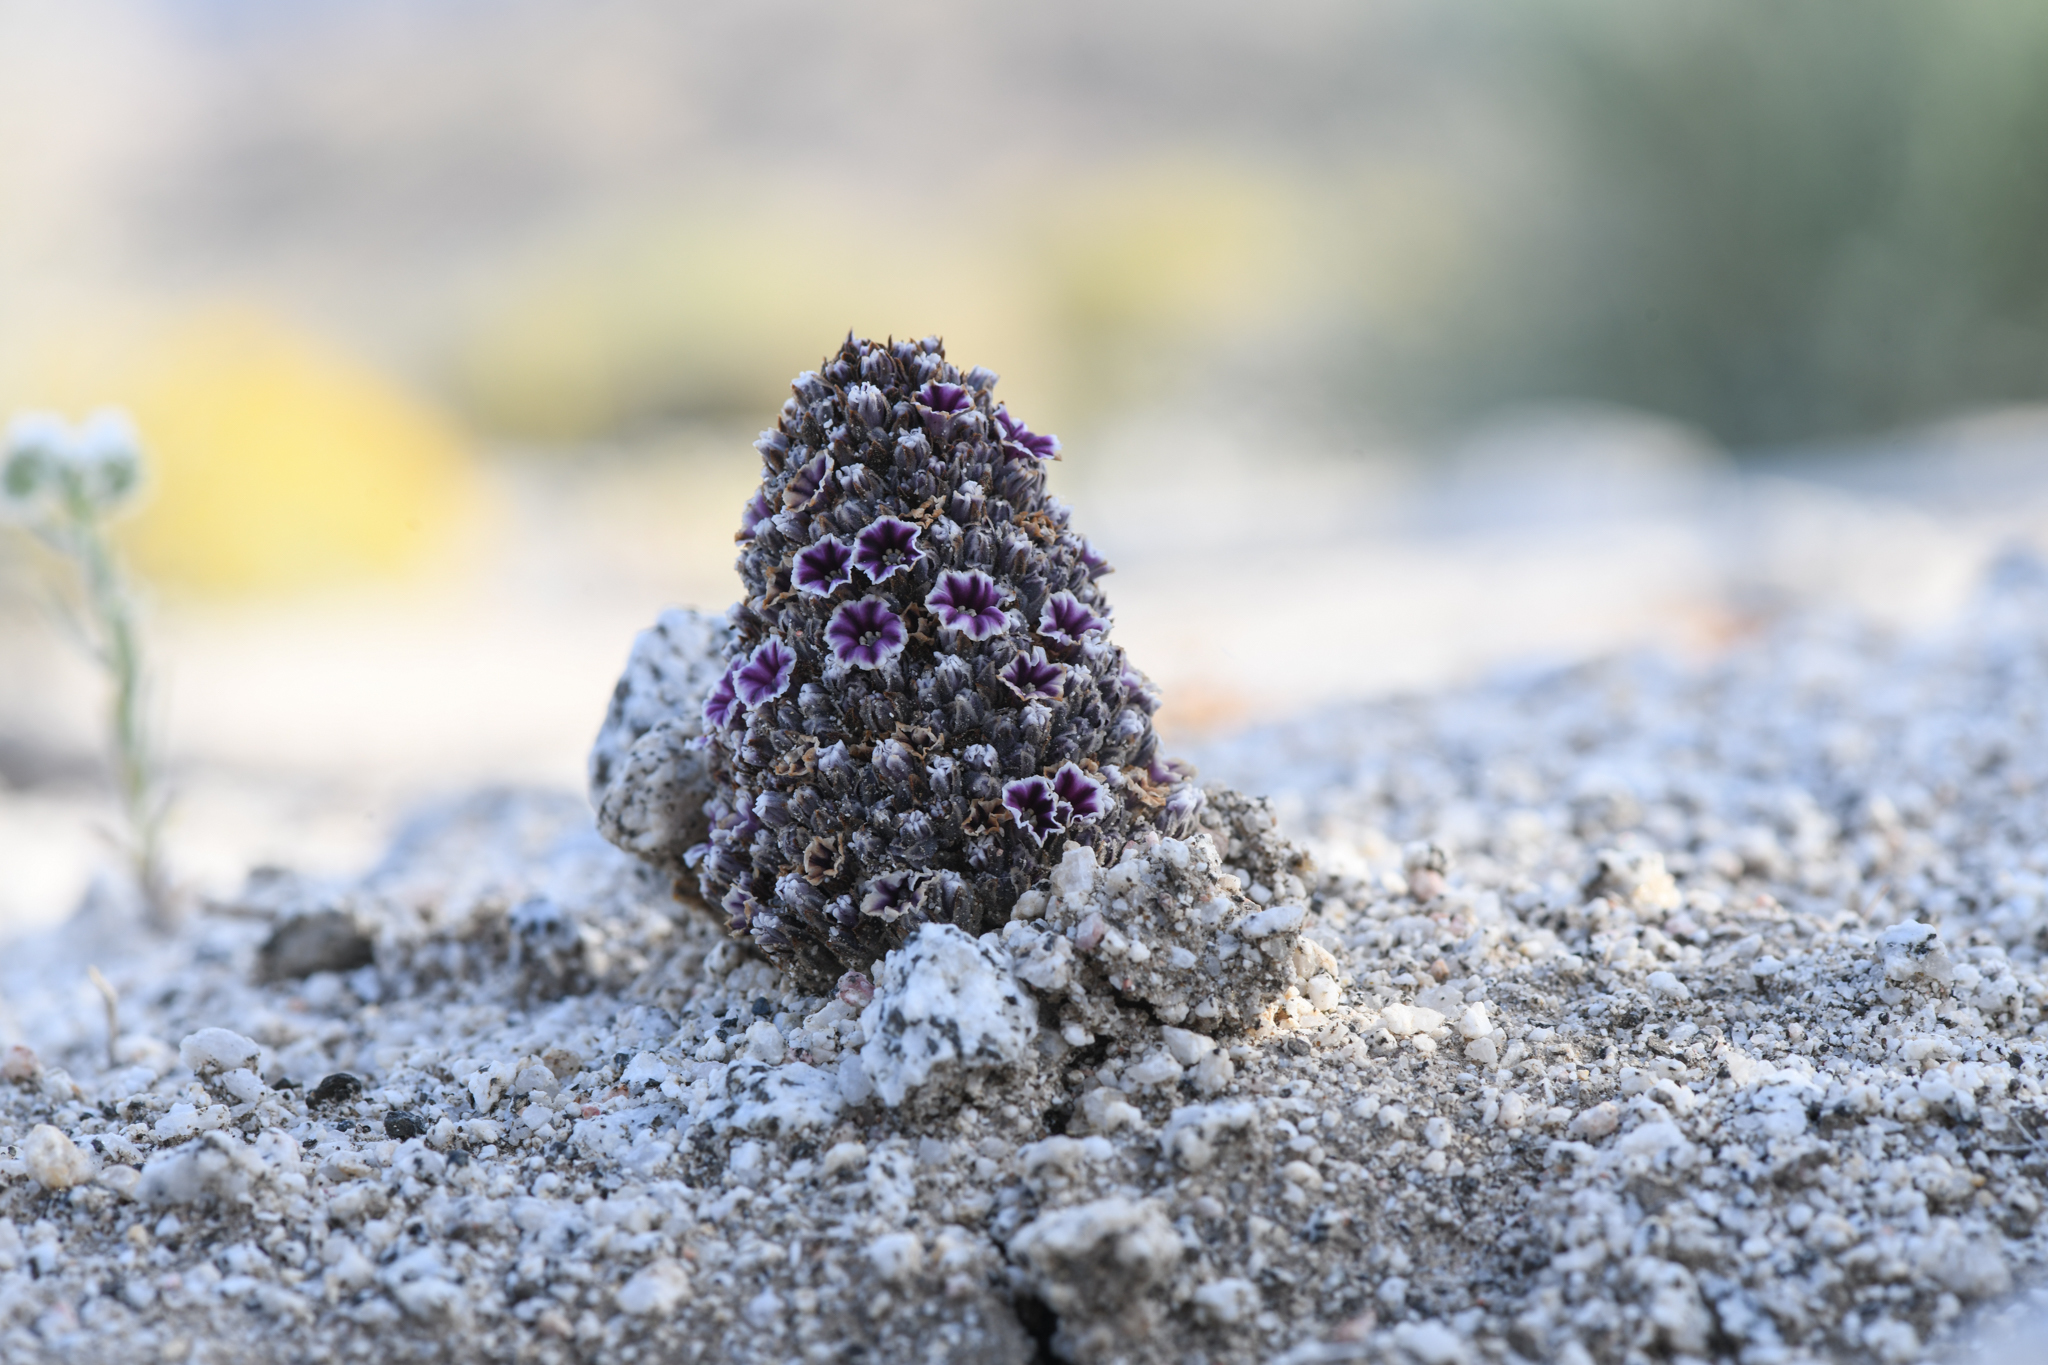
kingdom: Plantae
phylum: Tracheophyta
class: Magnoliopsida
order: Boraginales
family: Lennoaceae
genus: Pholisma
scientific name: Pholisma arenarium
